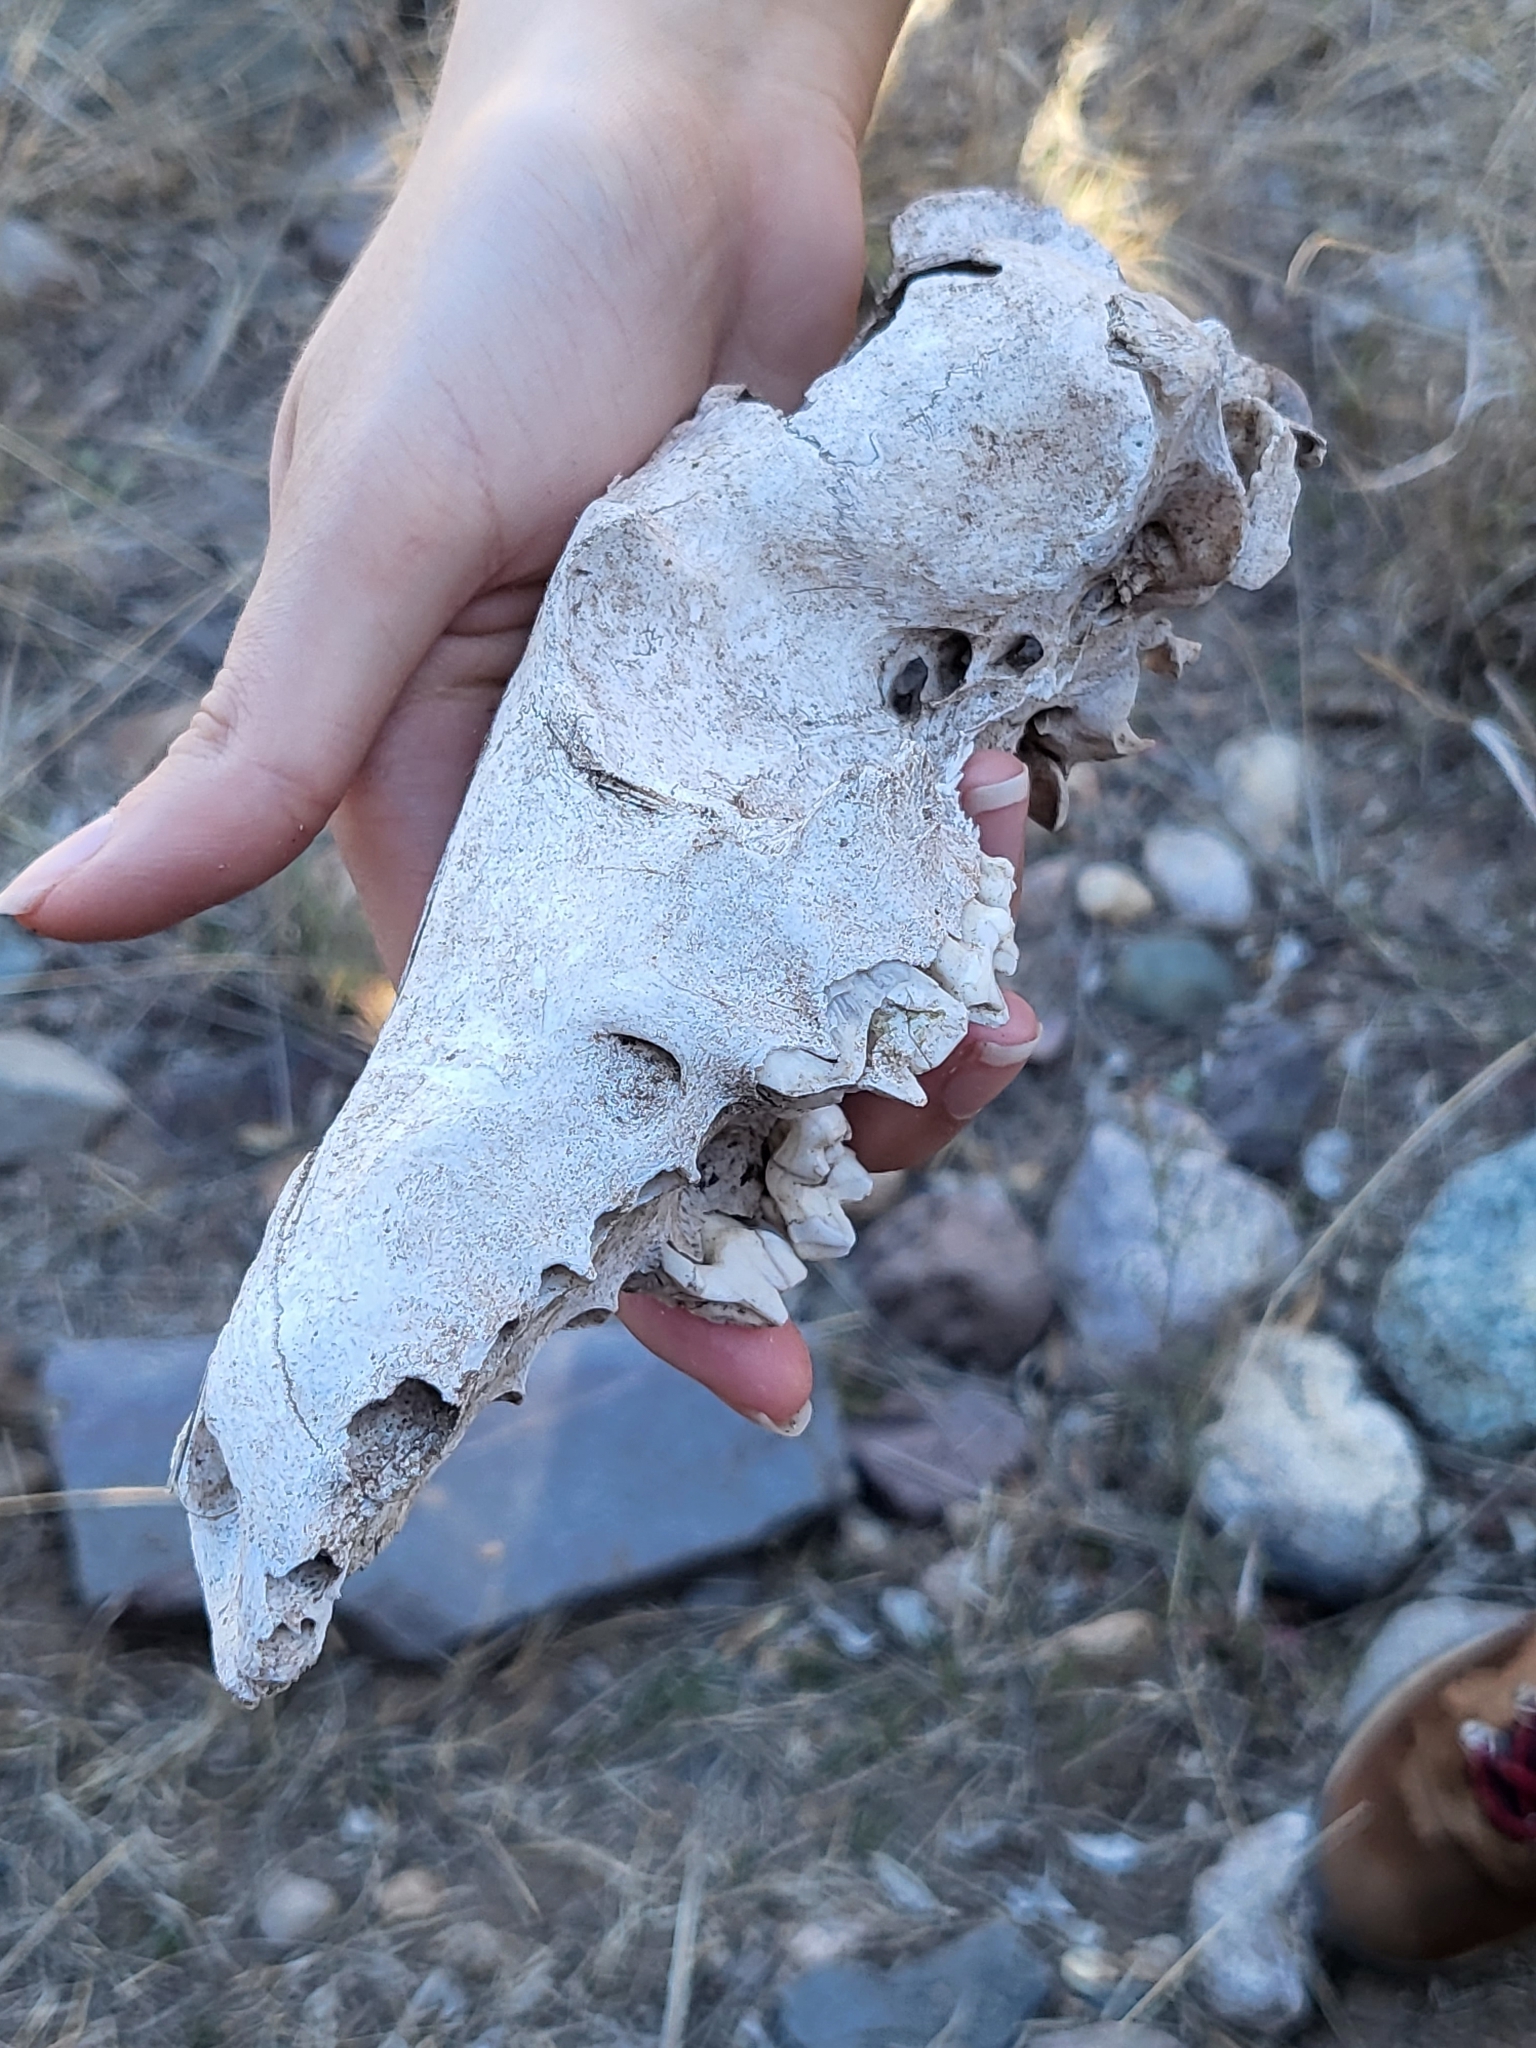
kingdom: Animalia
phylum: Chordata
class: Mammalia
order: Carnivora
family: Canidae
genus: Canis
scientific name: Canis latrans
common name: Coyote
